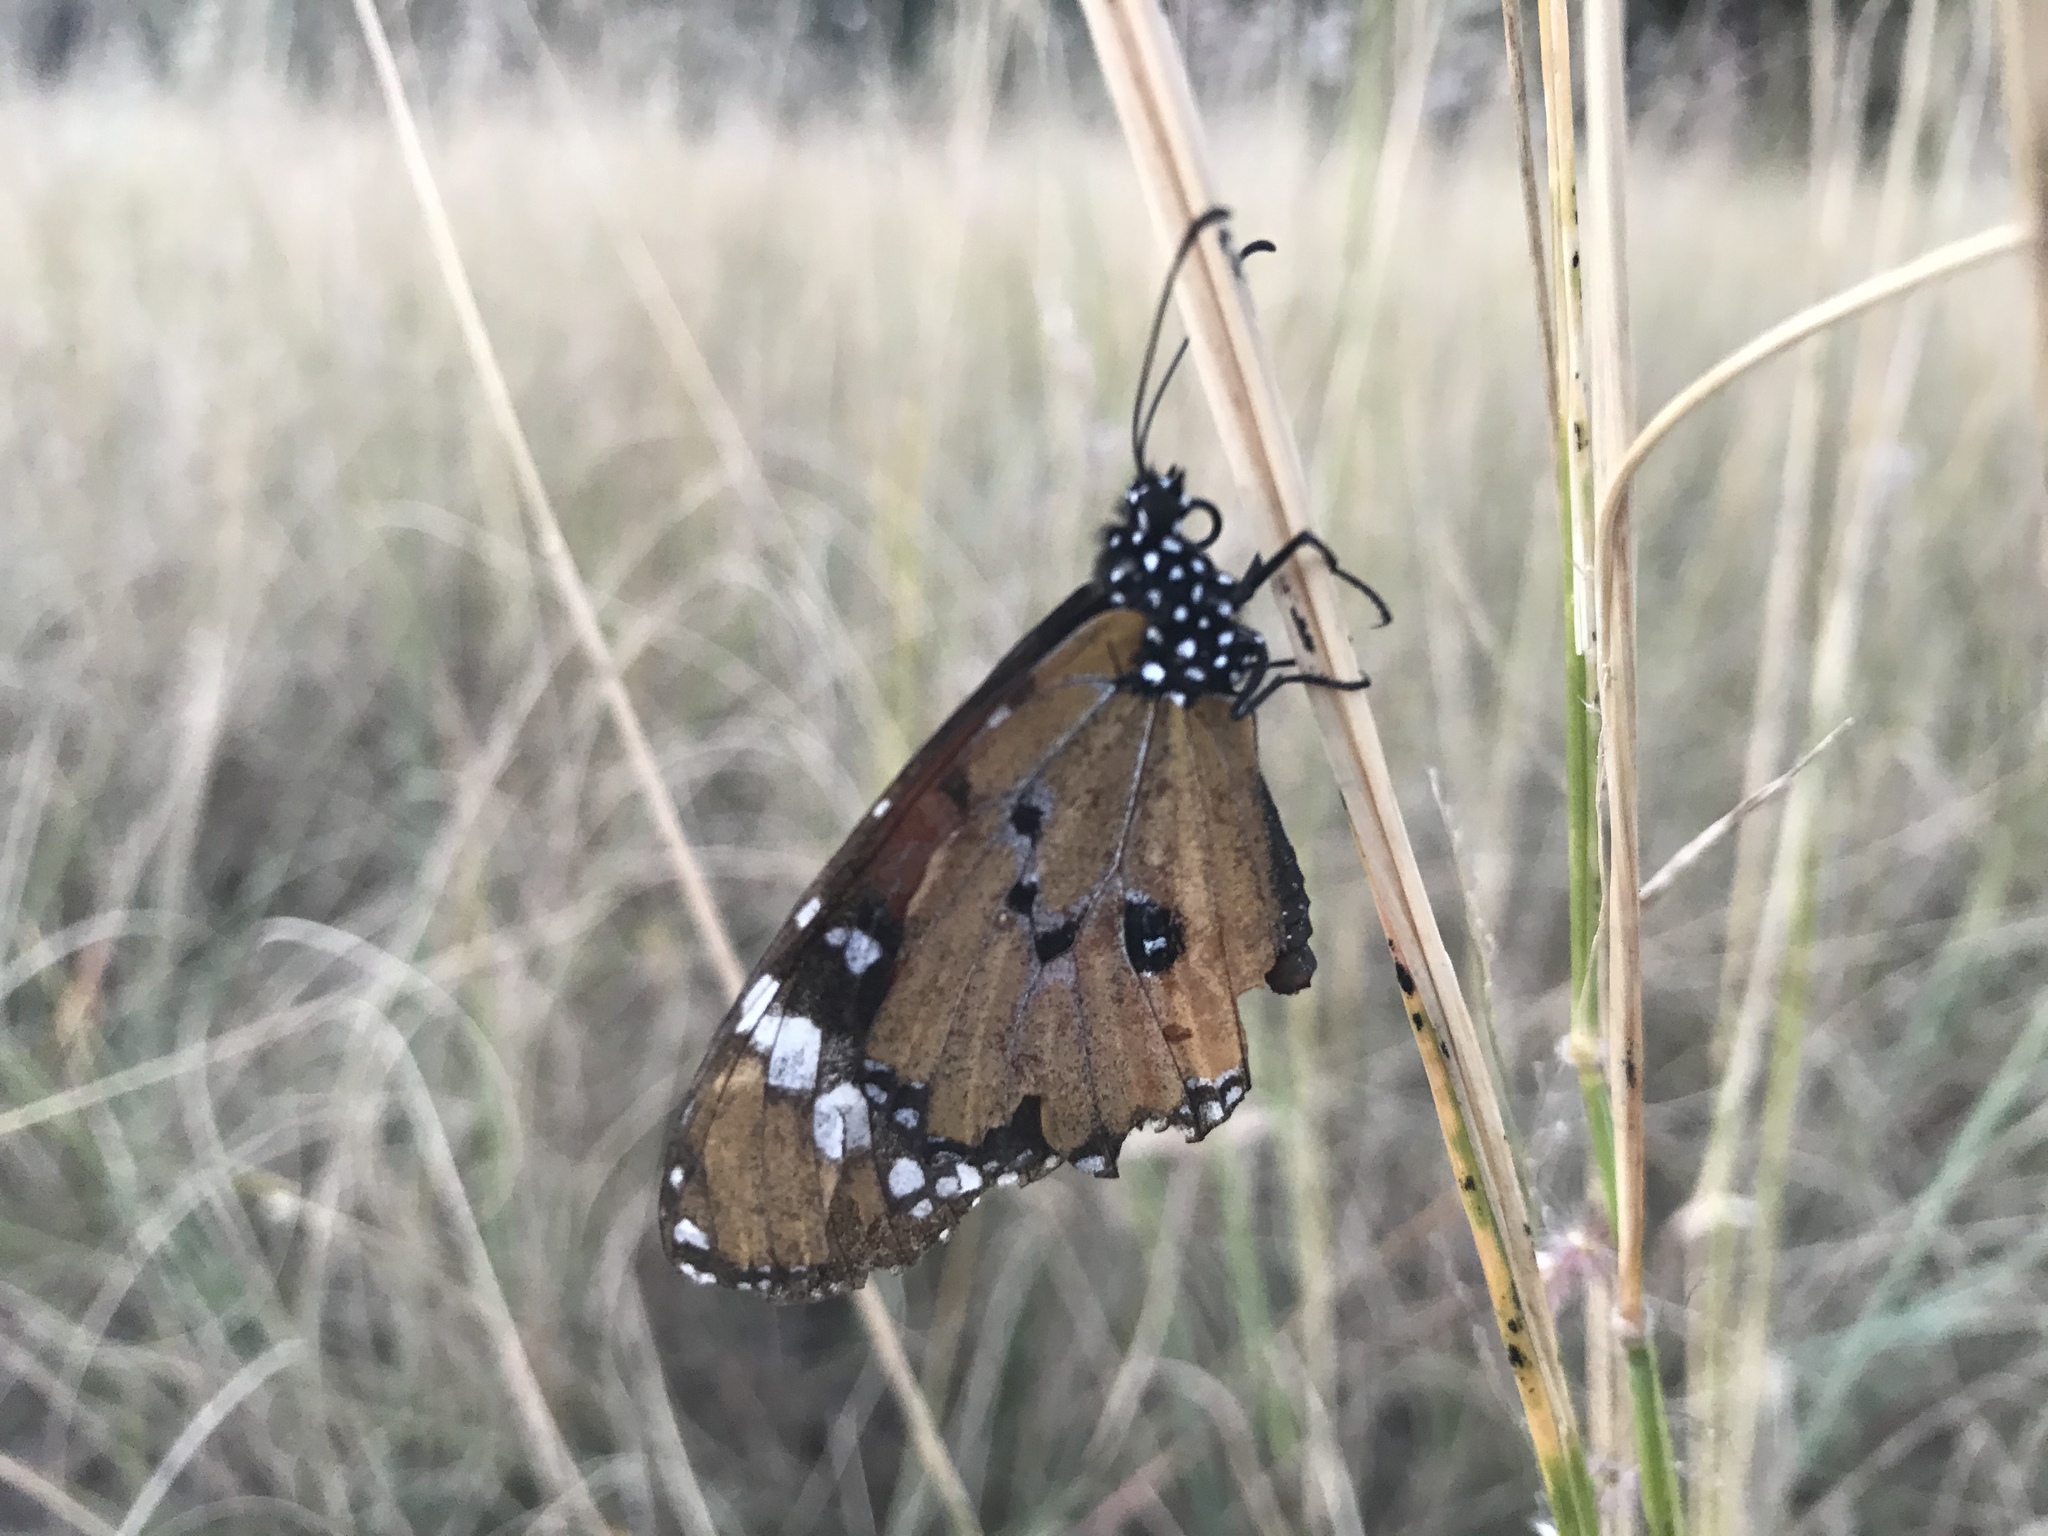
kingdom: Animalia
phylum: Arthropoda
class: Insecta
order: Lepidoptera
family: Nymphalidae
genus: Danaus
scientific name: Danaus chrysippus
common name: Plain tiger
